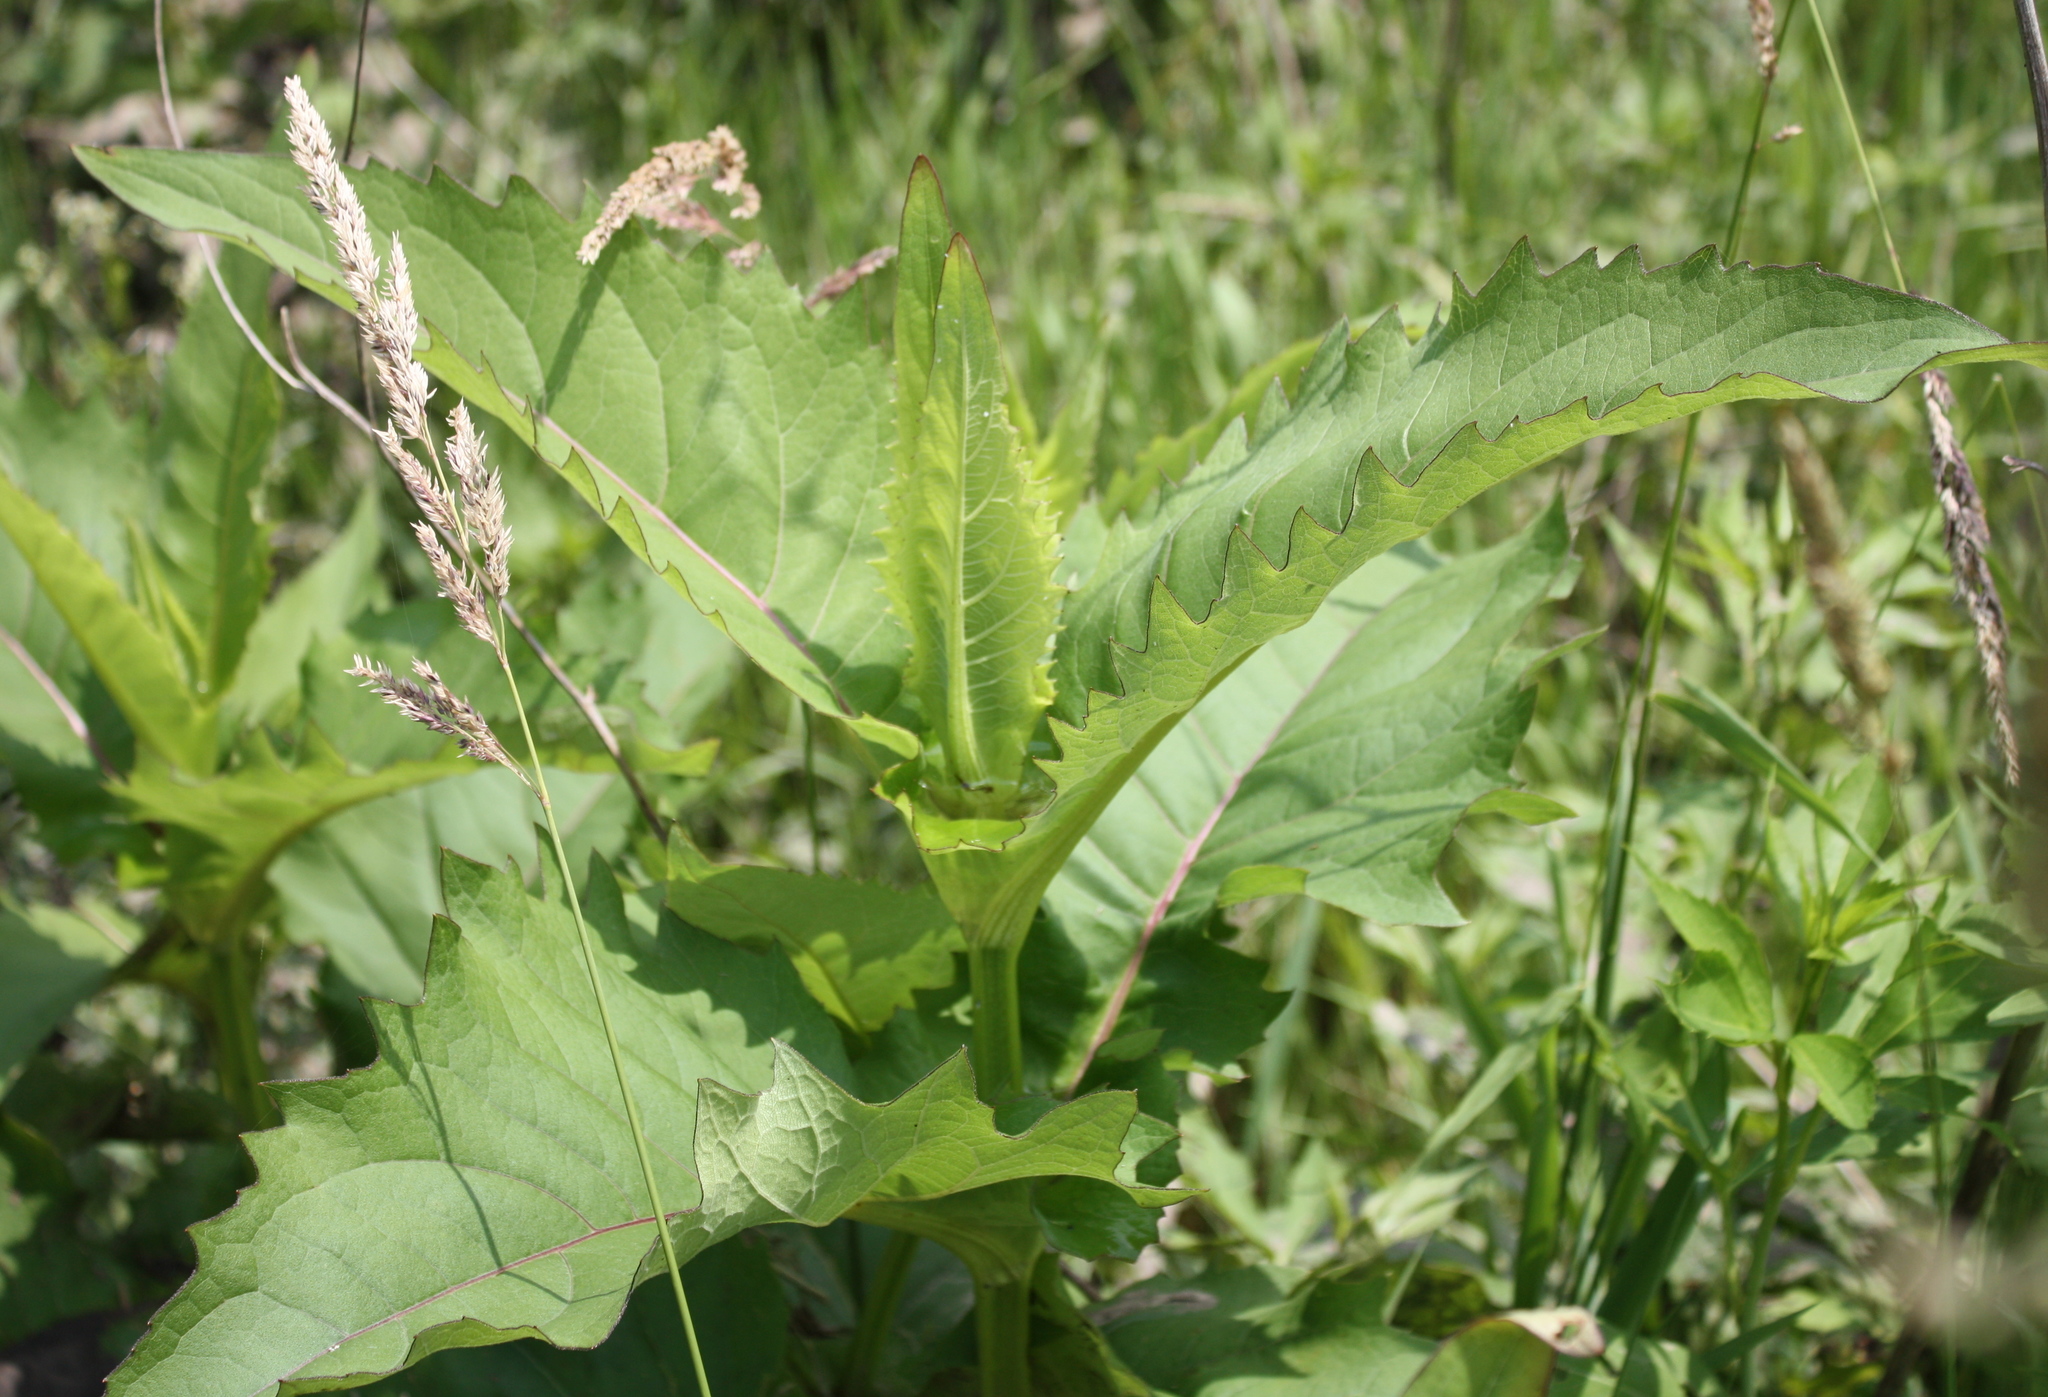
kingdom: Plantae
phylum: Tracheophyta
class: Magnoliopsida
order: Asterales
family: Asteraceae
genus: Arctium
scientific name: Arctium minus
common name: Lesser burdock
